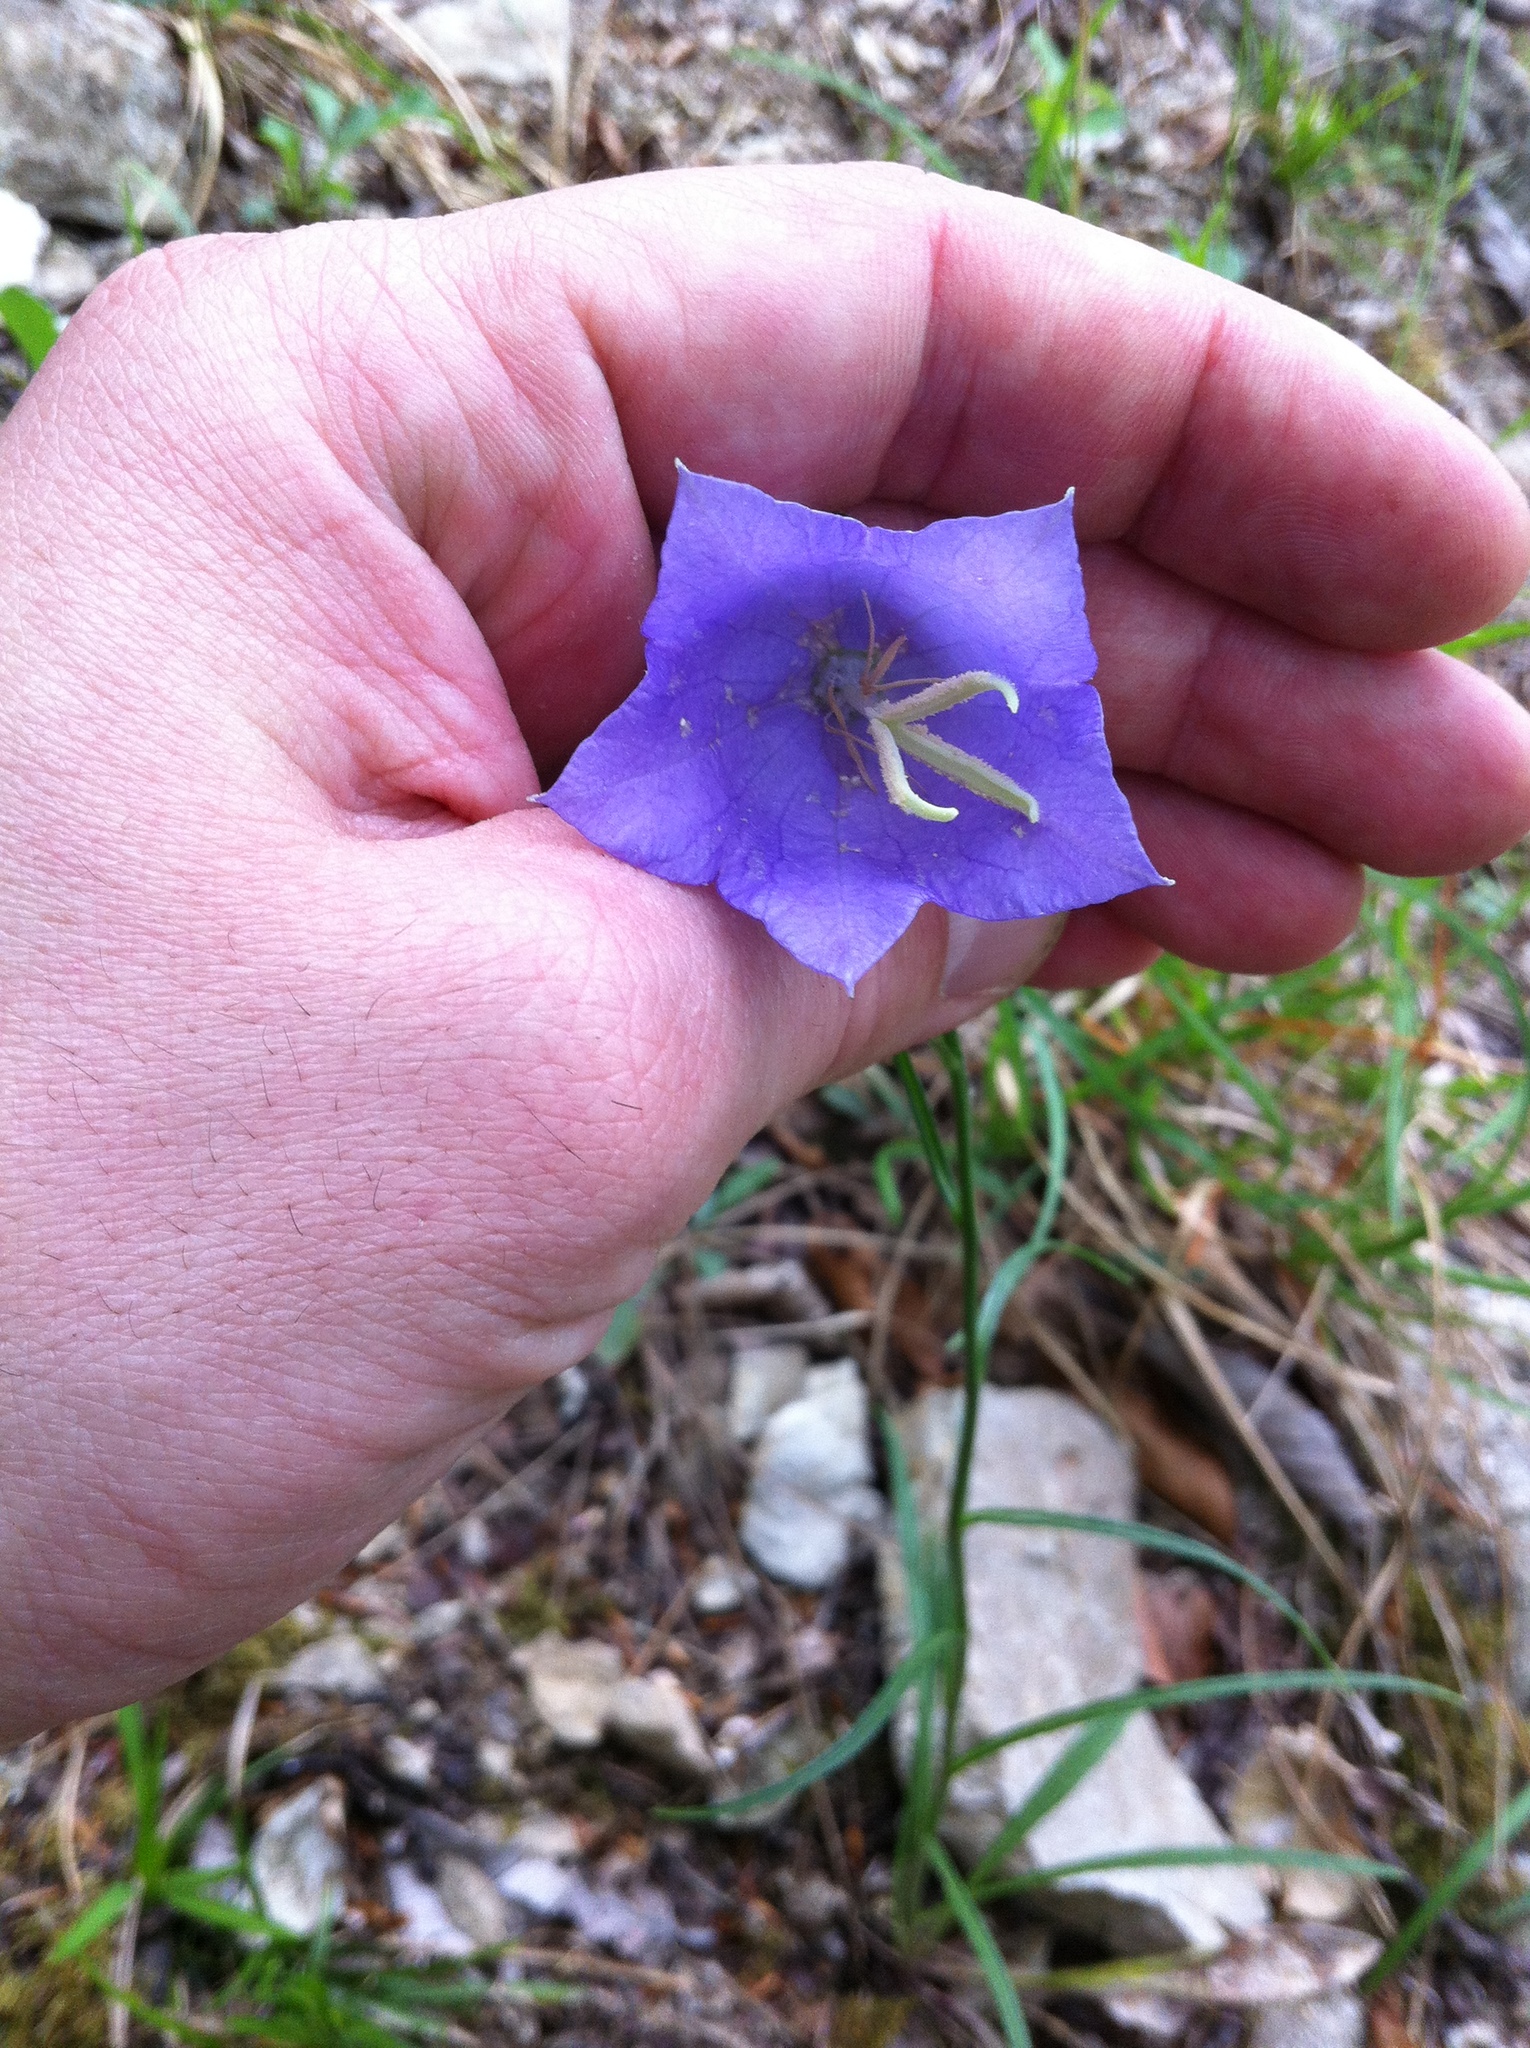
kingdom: Plantae
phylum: Tracheophyta
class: Magnoliopsida
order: Asterales
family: Campanulaceae
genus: Campanula
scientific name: Campanula persicifolia
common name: Peach-leaved bellflower
